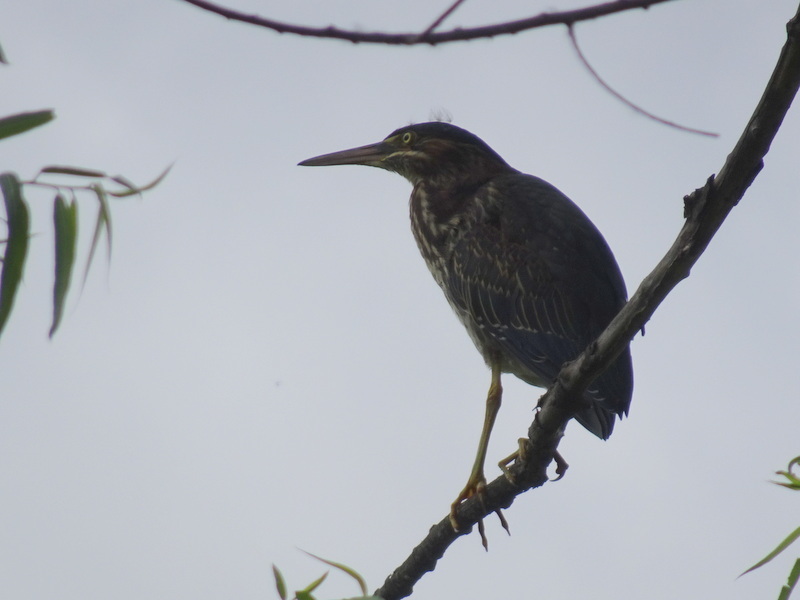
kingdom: Animalia
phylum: Chordata
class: Aves
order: Pelecaniformes
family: Ardeidae
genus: Butorides
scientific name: Butorides virescens
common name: Green heron
